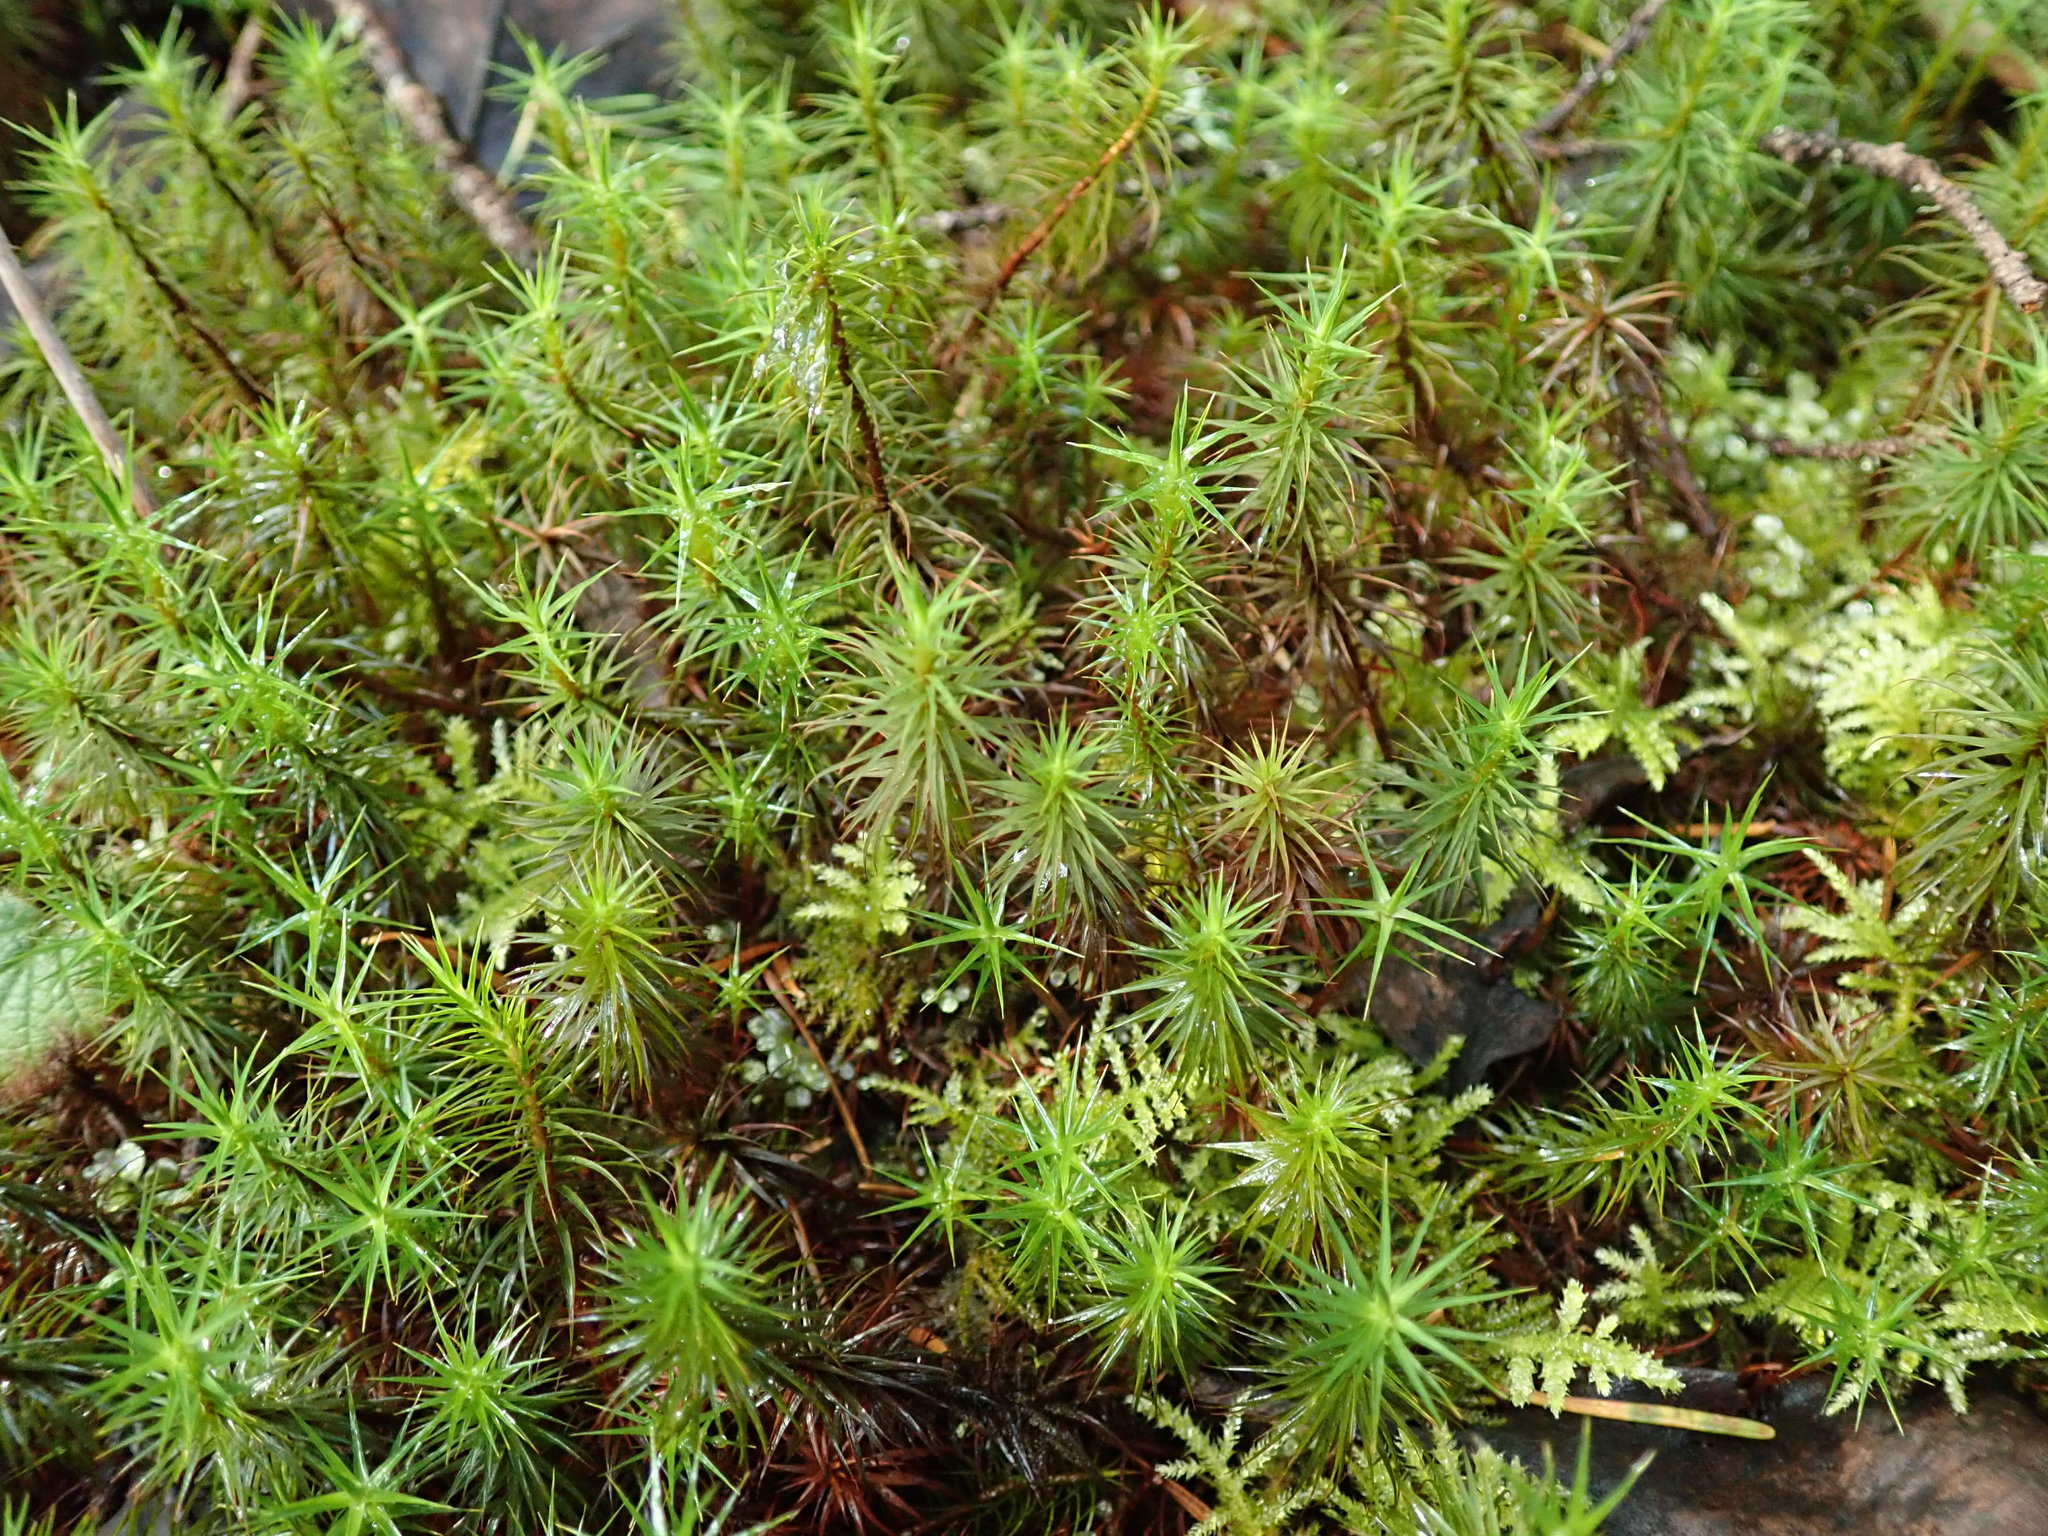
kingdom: Plantae
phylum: Bryophyta
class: Polytrichopsida
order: Polytrichales
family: Polytrichaceae
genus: Polytrichum
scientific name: Polytrichum commune
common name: Common haircap
